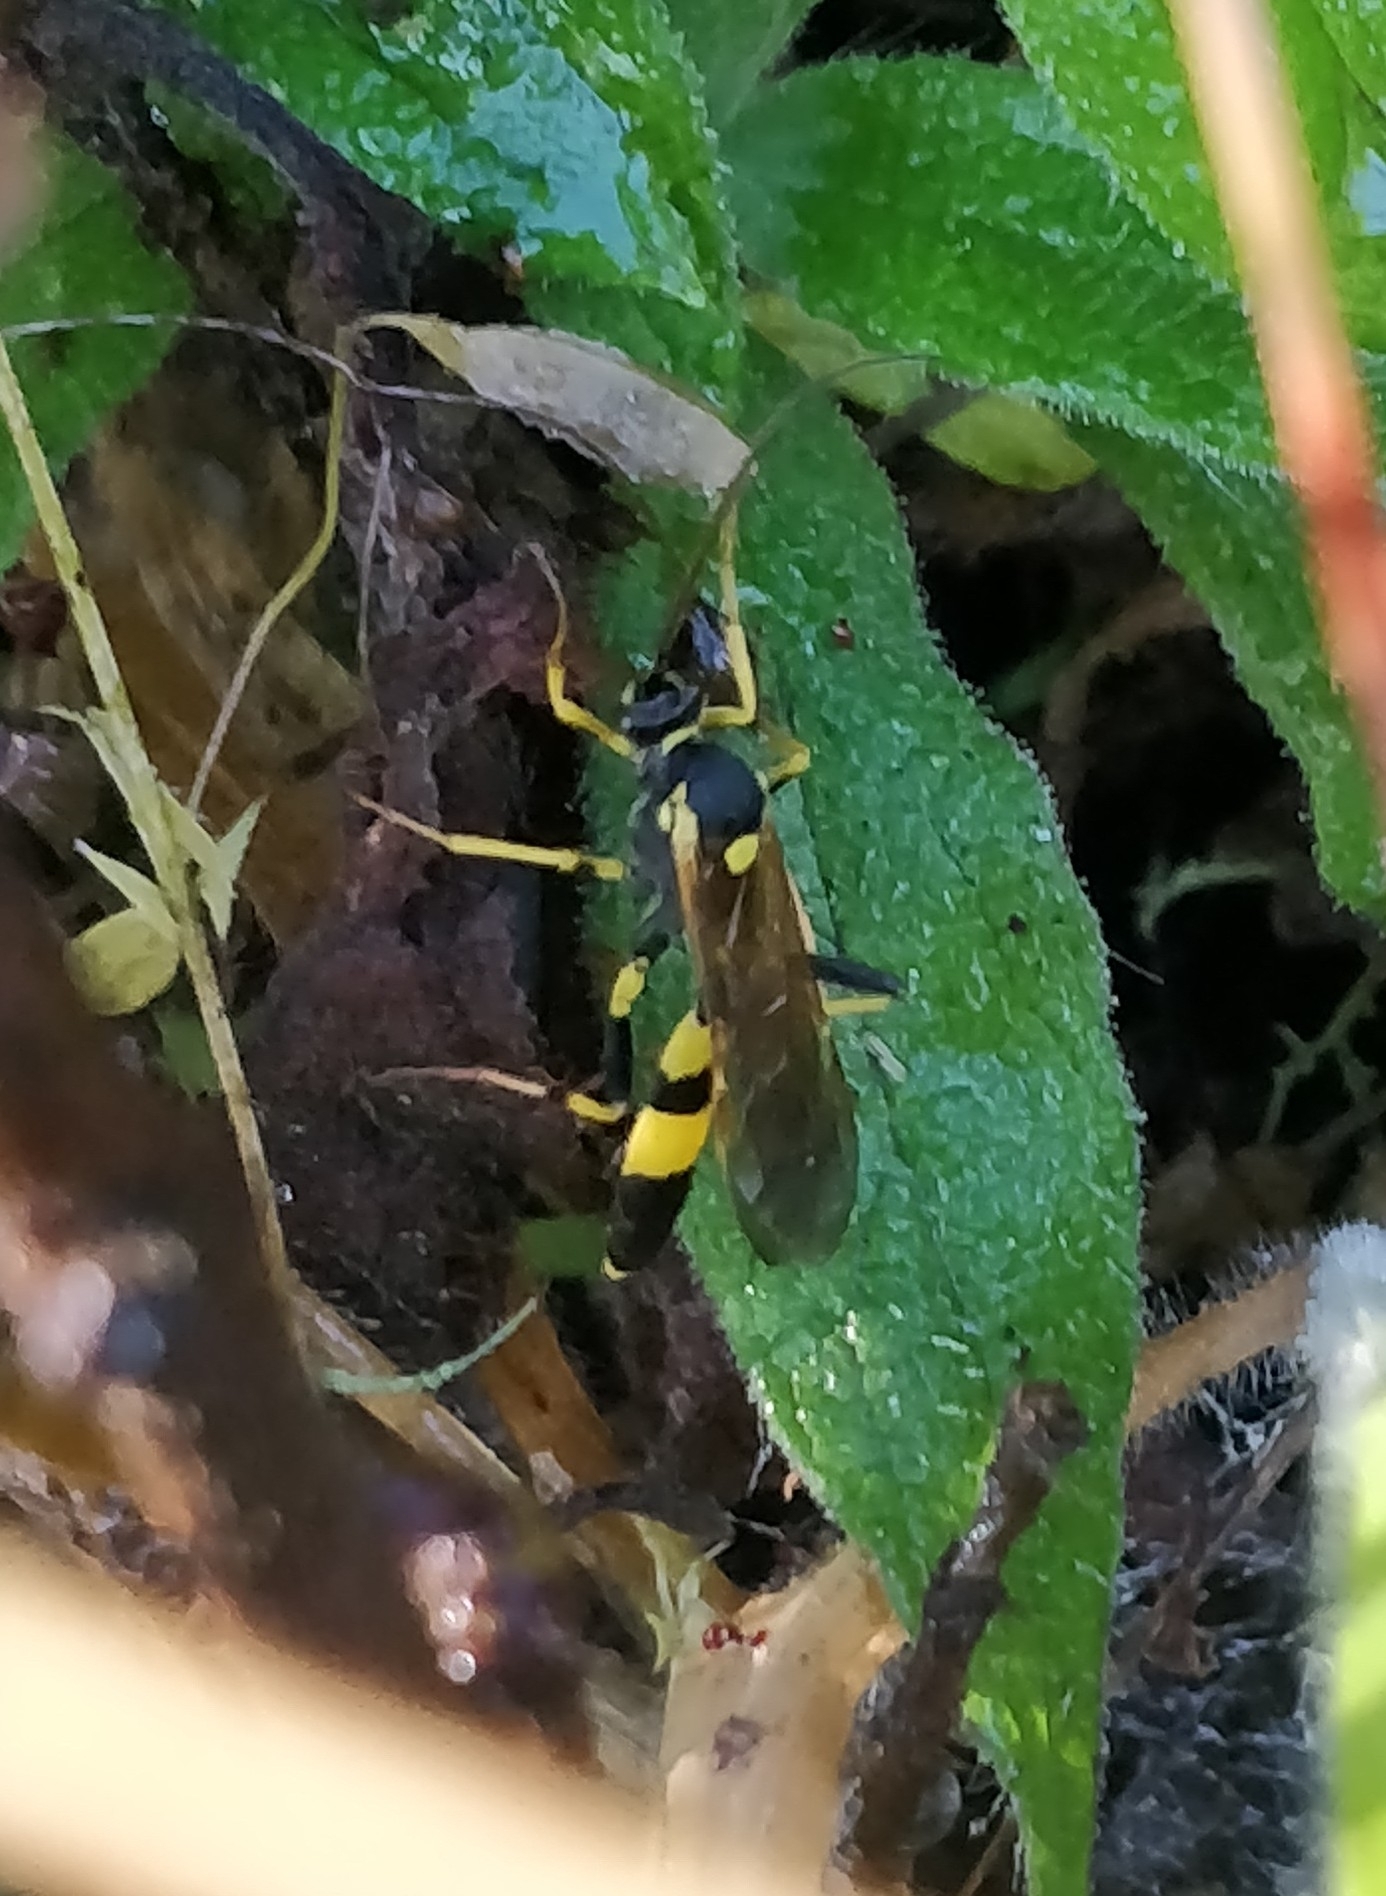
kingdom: Animalia
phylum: Arthropoda
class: Insecta
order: Hymenoptera
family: Ichneumonidae
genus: Amblyteles
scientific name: Amblyteles armatorius
